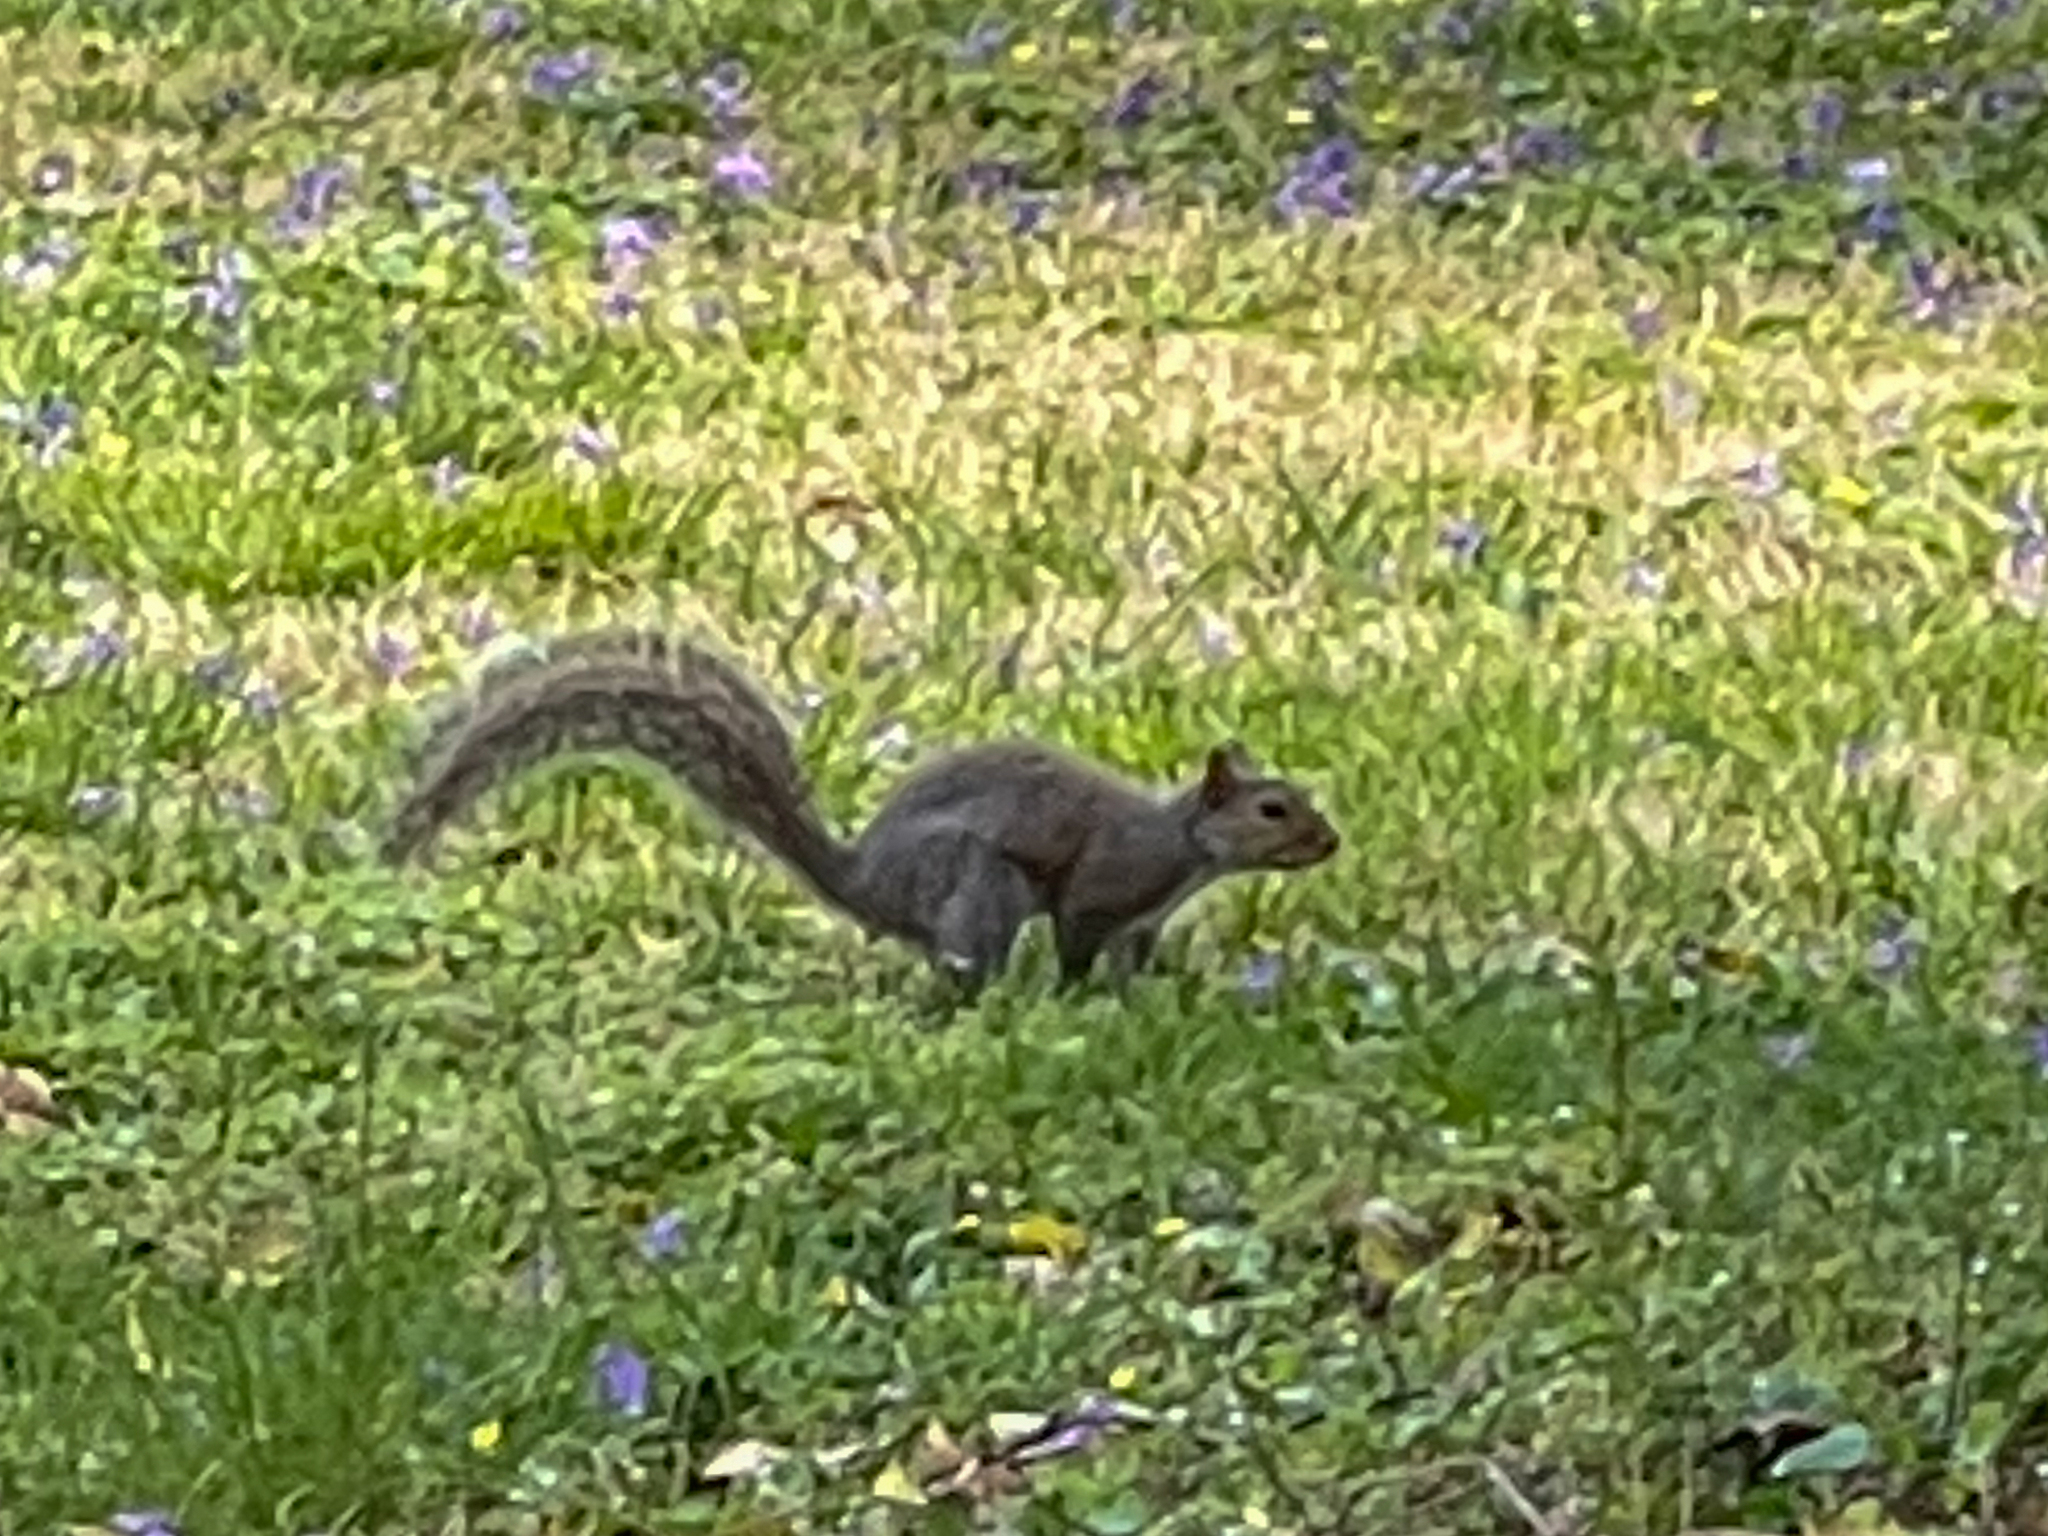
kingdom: Animalia
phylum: Chordata
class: Mammalia
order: Rodentia
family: Sciuridae
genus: Sciurus
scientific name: Sciurus carolinensis
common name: Eastern gray squirrel
